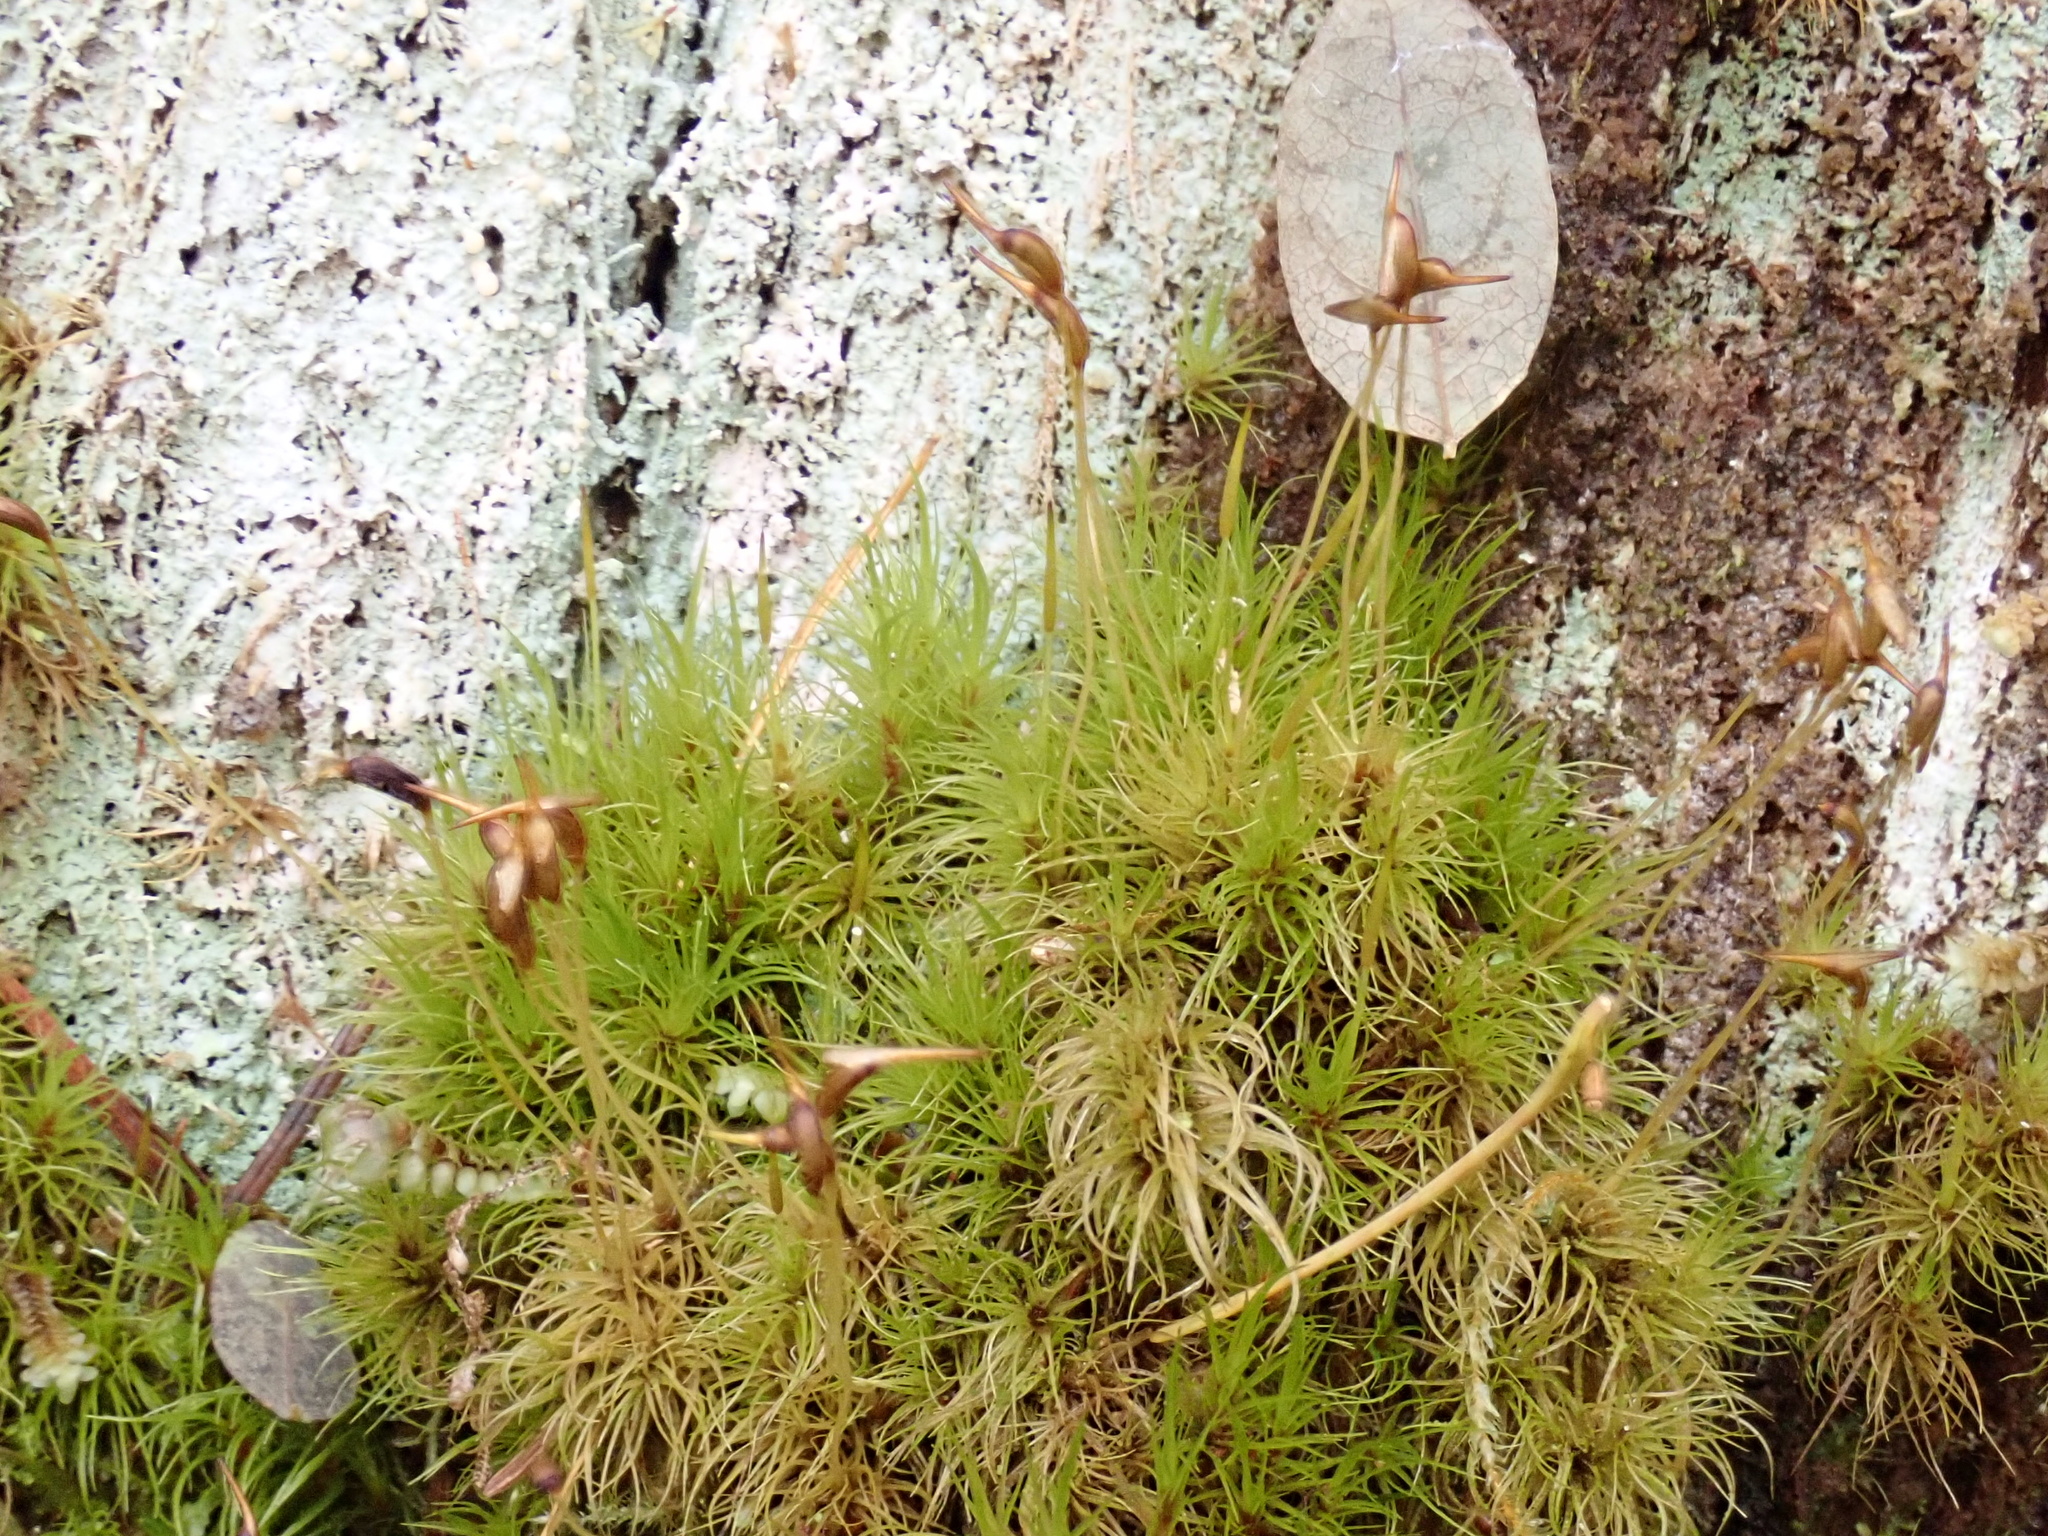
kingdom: Plantae
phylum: Bryophyta
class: Bryopsida
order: Dicranales
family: Dicranaceae
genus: Dicranum
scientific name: Dicranum scoparium
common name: Broom fork-moss
